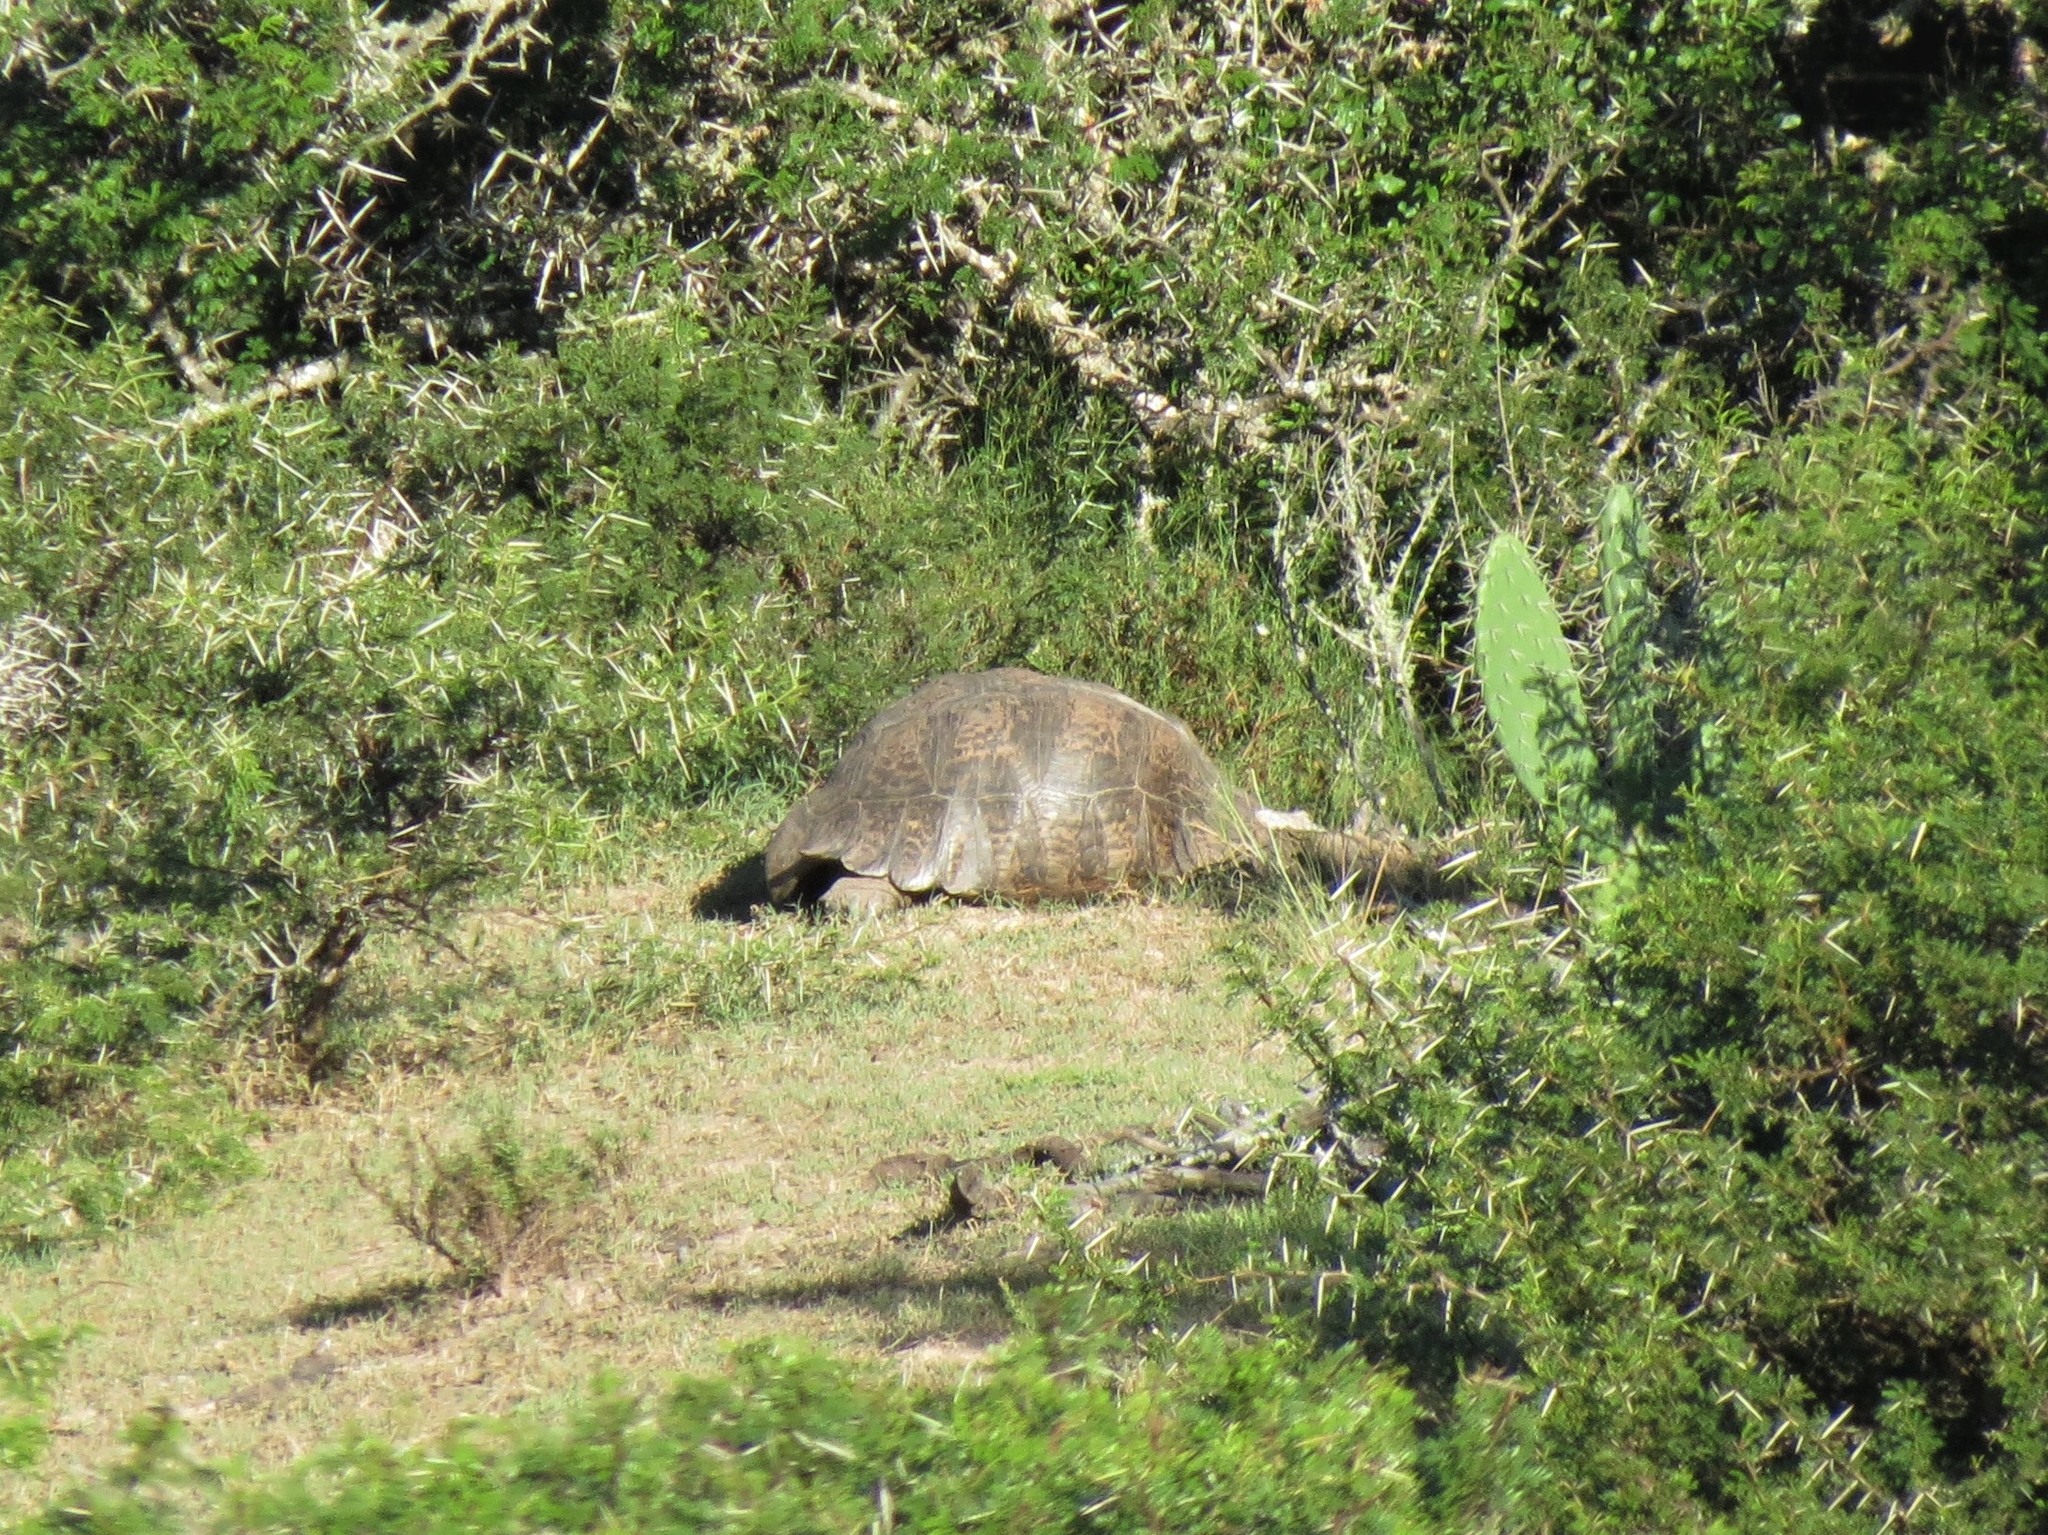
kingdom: Animalia
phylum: Chordata
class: Testudines
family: Testudinidae
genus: Stigmochelys
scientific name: Stigmochelys pardalis
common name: Leopard tortoise
